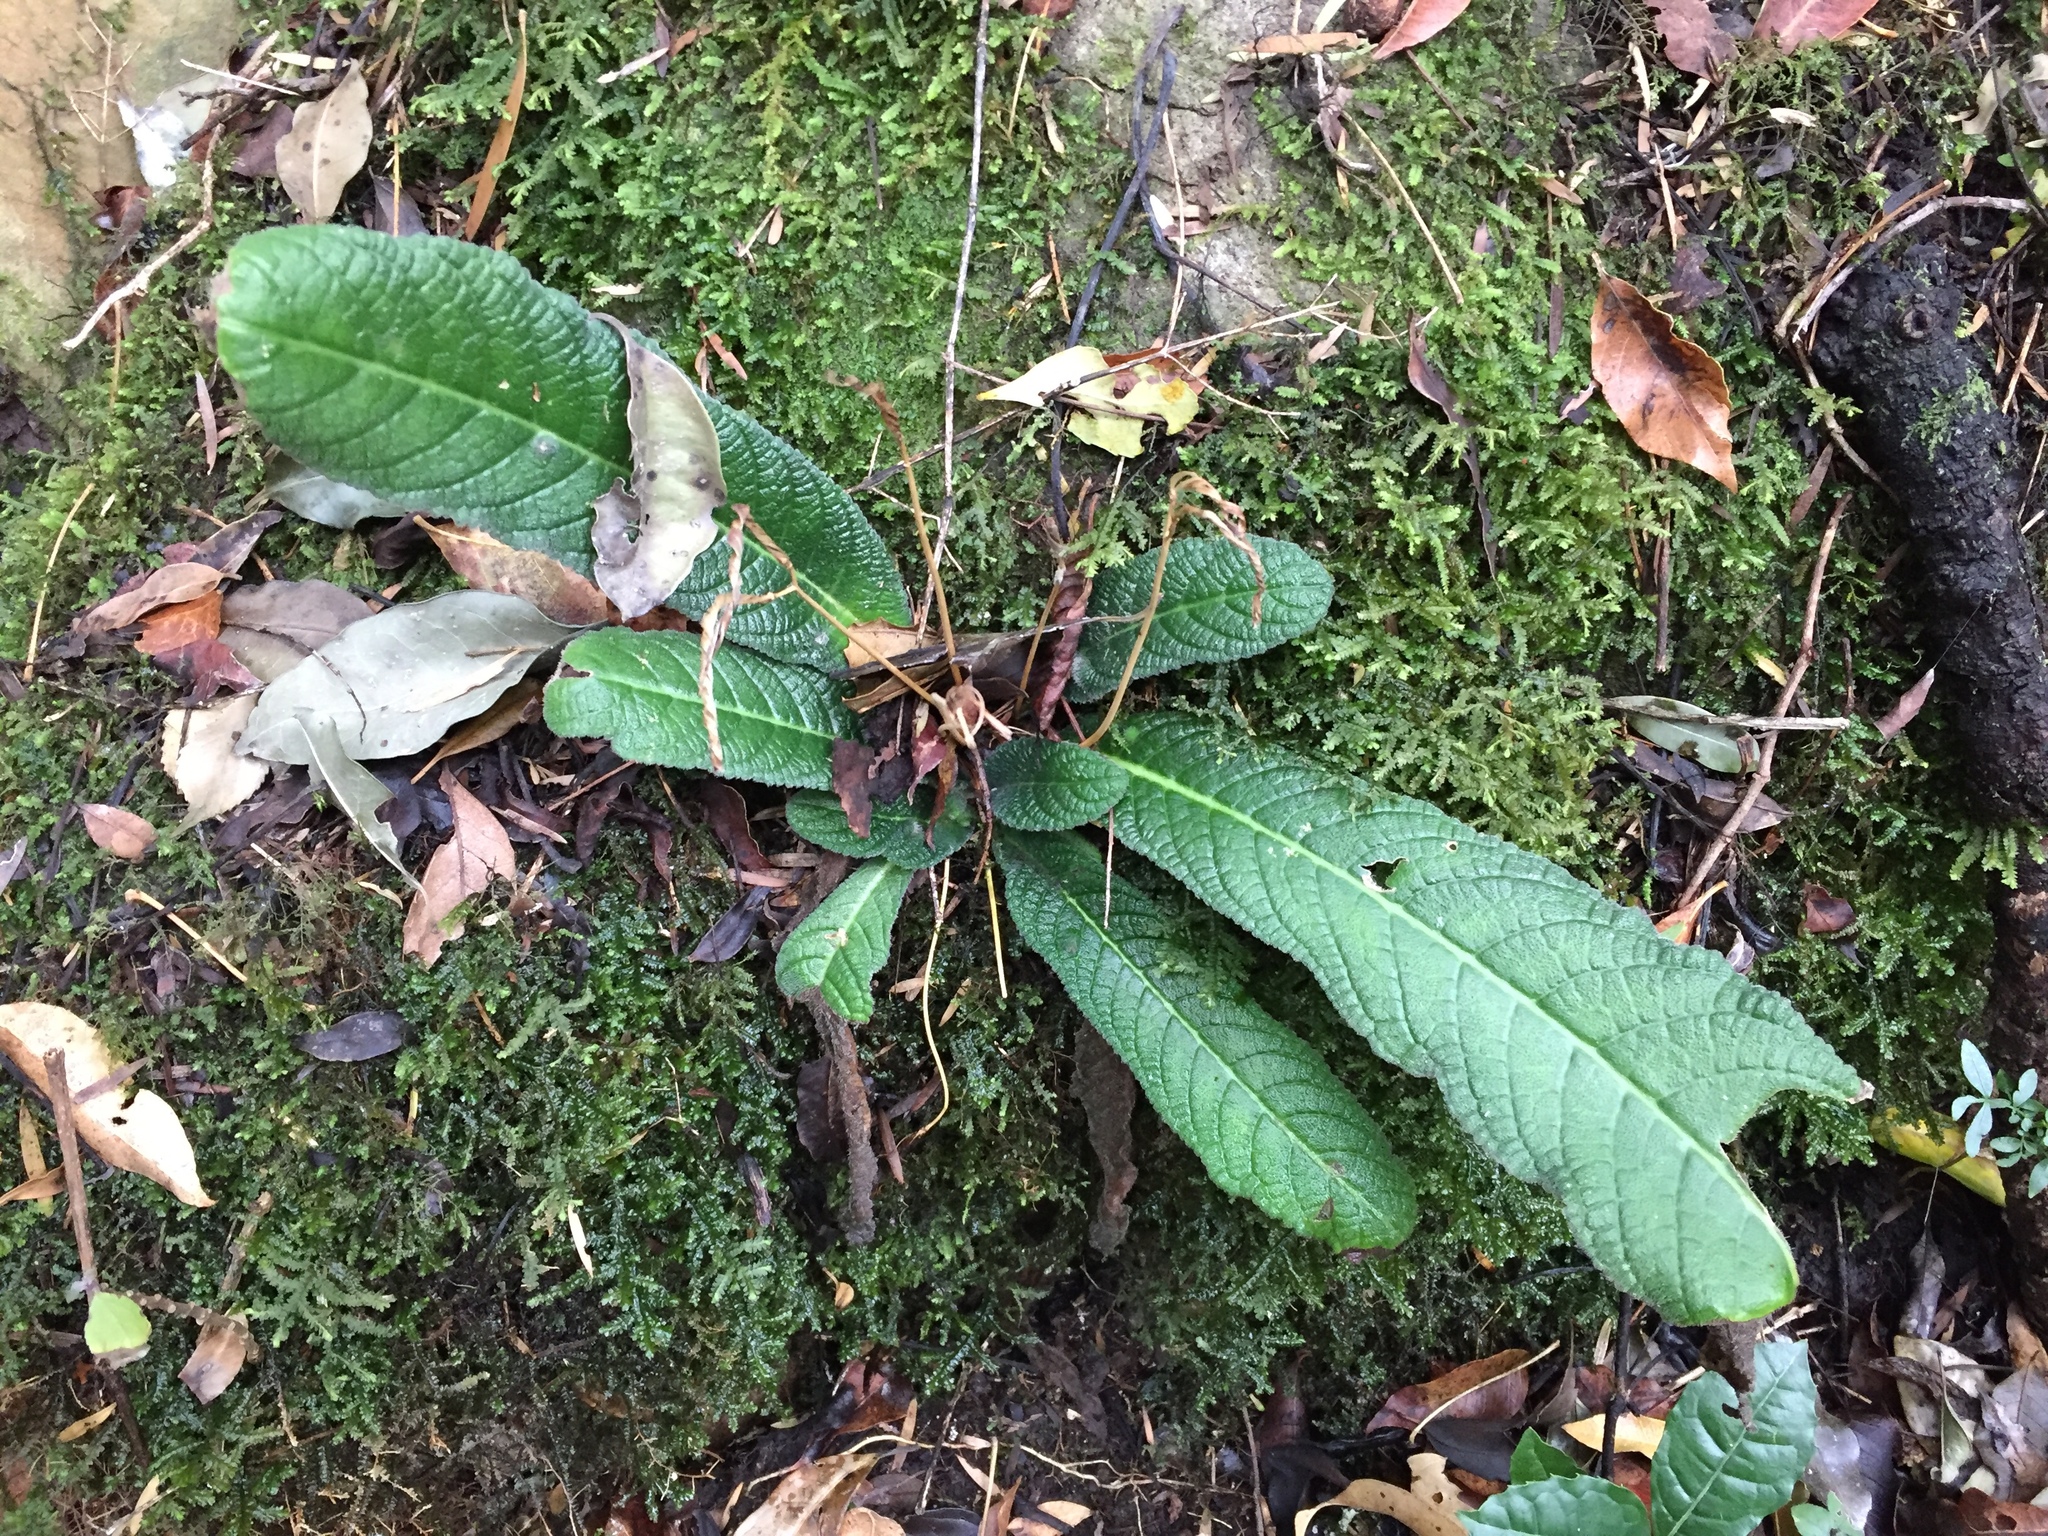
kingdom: Plantae
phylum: Tracheophyta
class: Magnoliopsida
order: Lamiales
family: Gesneriaceae
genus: Streptocarpus
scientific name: Streptocarpus rexii
